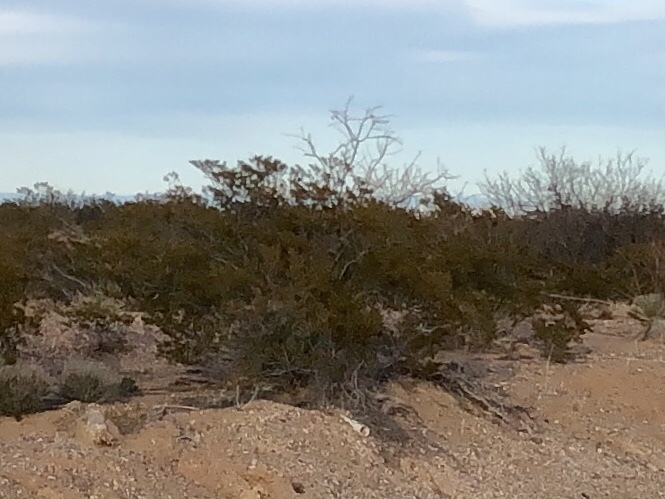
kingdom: Plantae
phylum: Tracheophyta
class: Magnoliopsida
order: Zygophyllales
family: Zygophyllaceae
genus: Larrea
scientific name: Larrea tridentata
